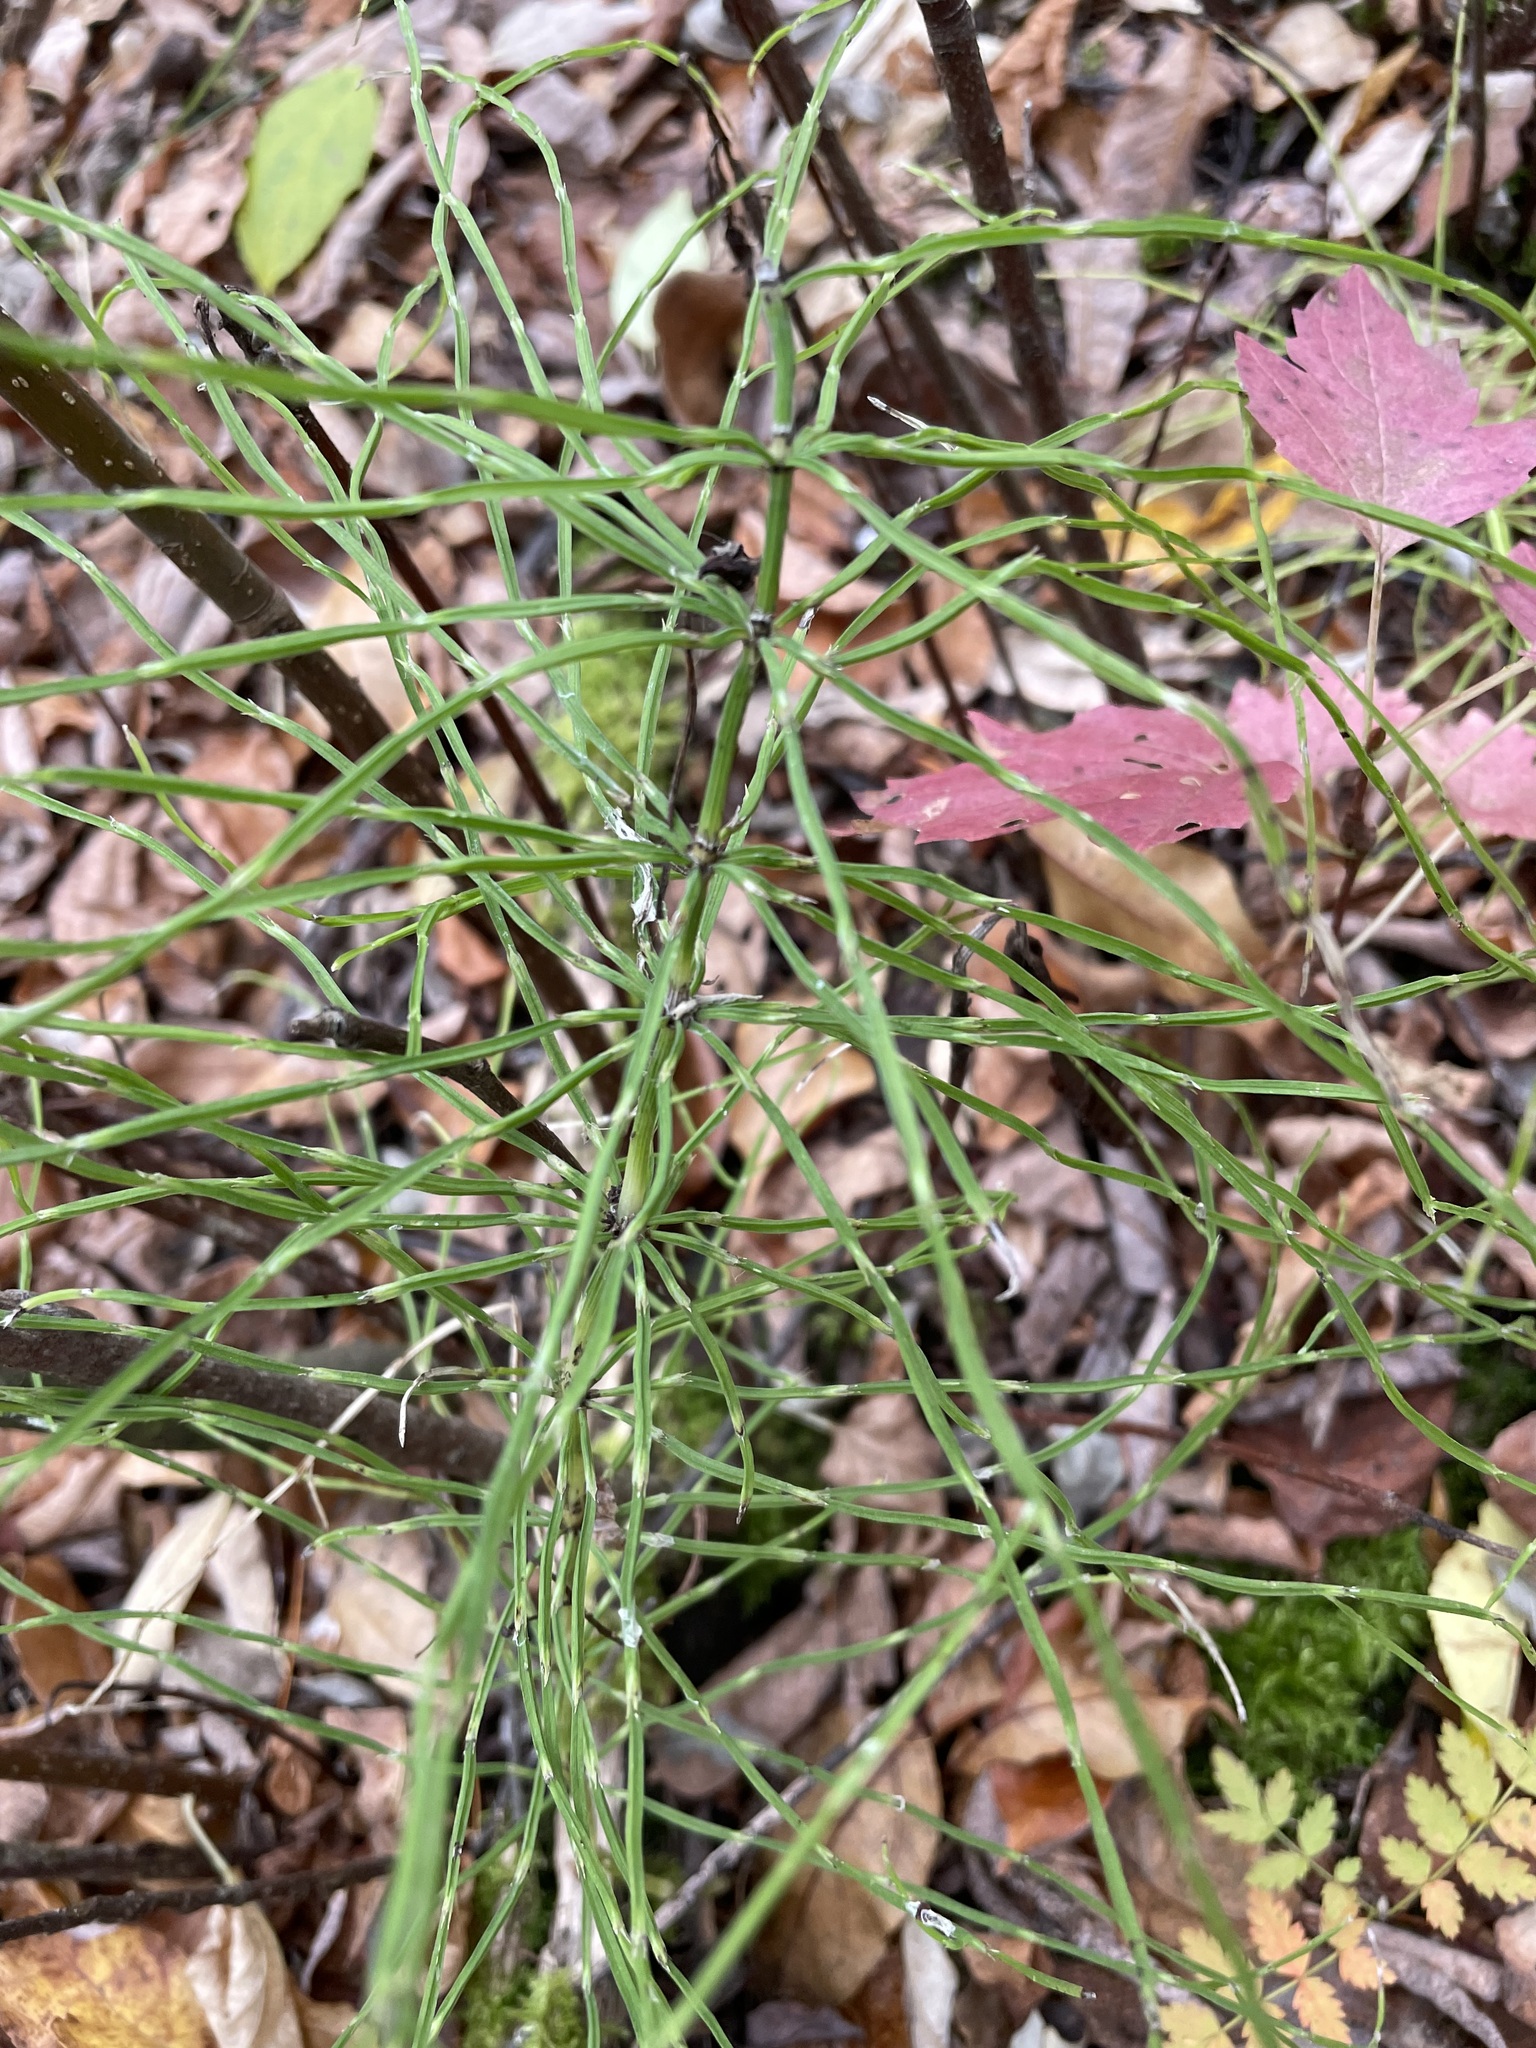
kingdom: Plantae
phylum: Tracheophyta
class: Polypodiopsida
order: Equisetales
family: Equisetaceae
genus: Equisetum
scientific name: Equisetum pratense
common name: Meadow horsetail
